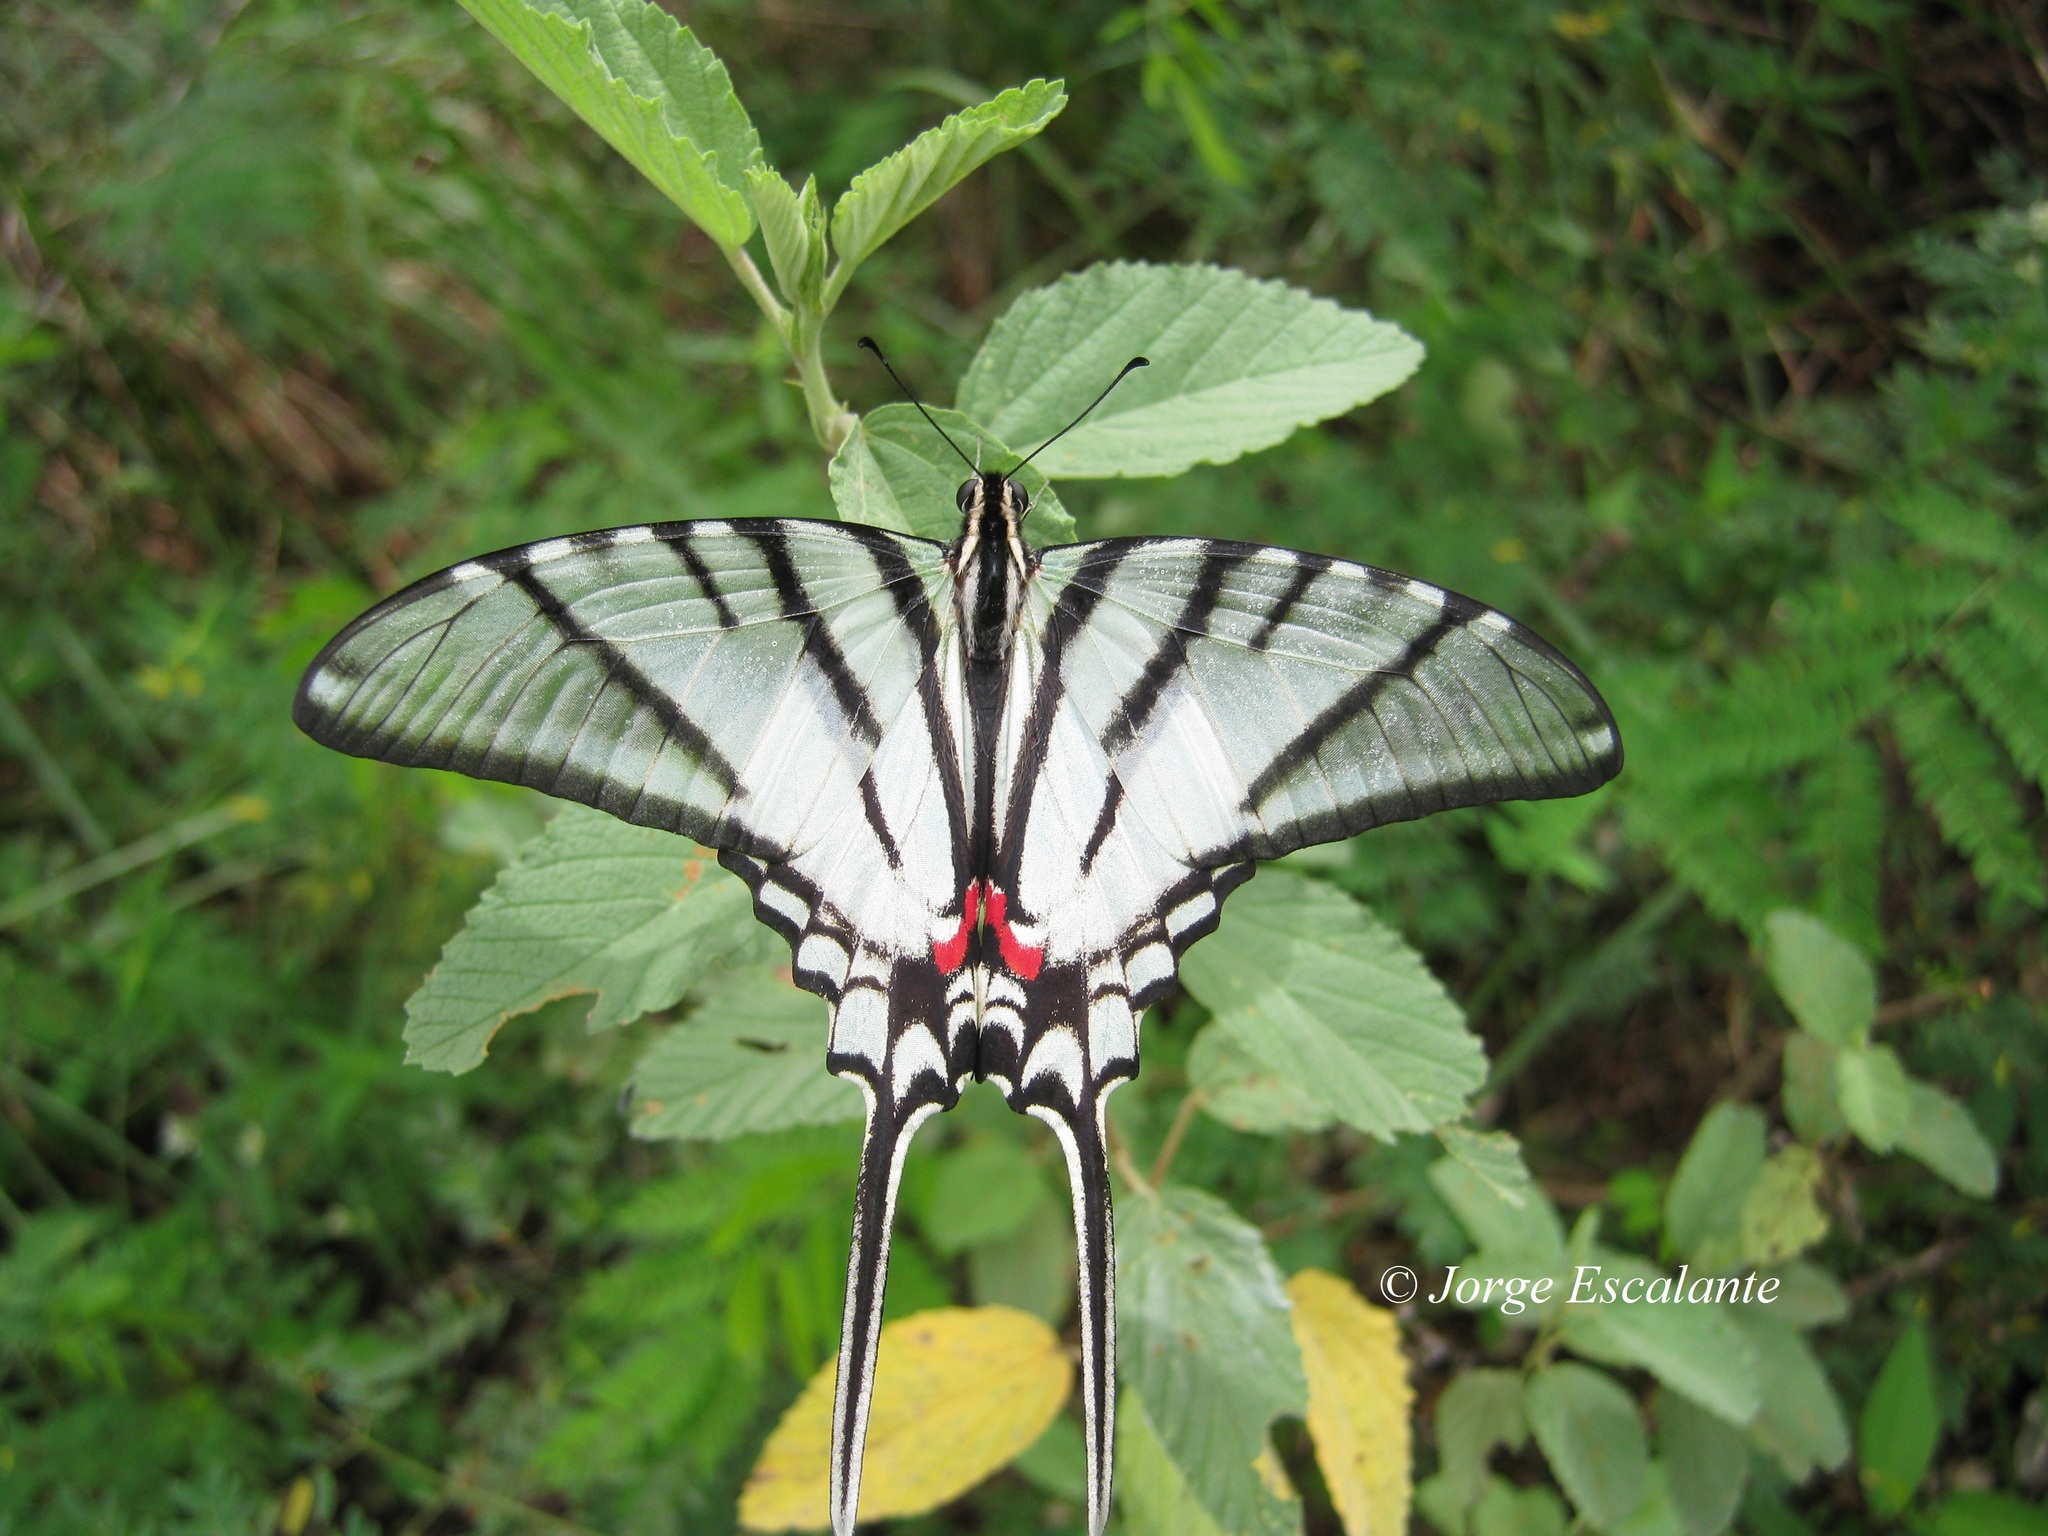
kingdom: Animalia
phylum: Arthropoda
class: Insecta
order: Lepidoptera
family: Papilionidae
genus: Protographium
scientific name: Protographium epidaus
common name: Mexican kite swallowtail
